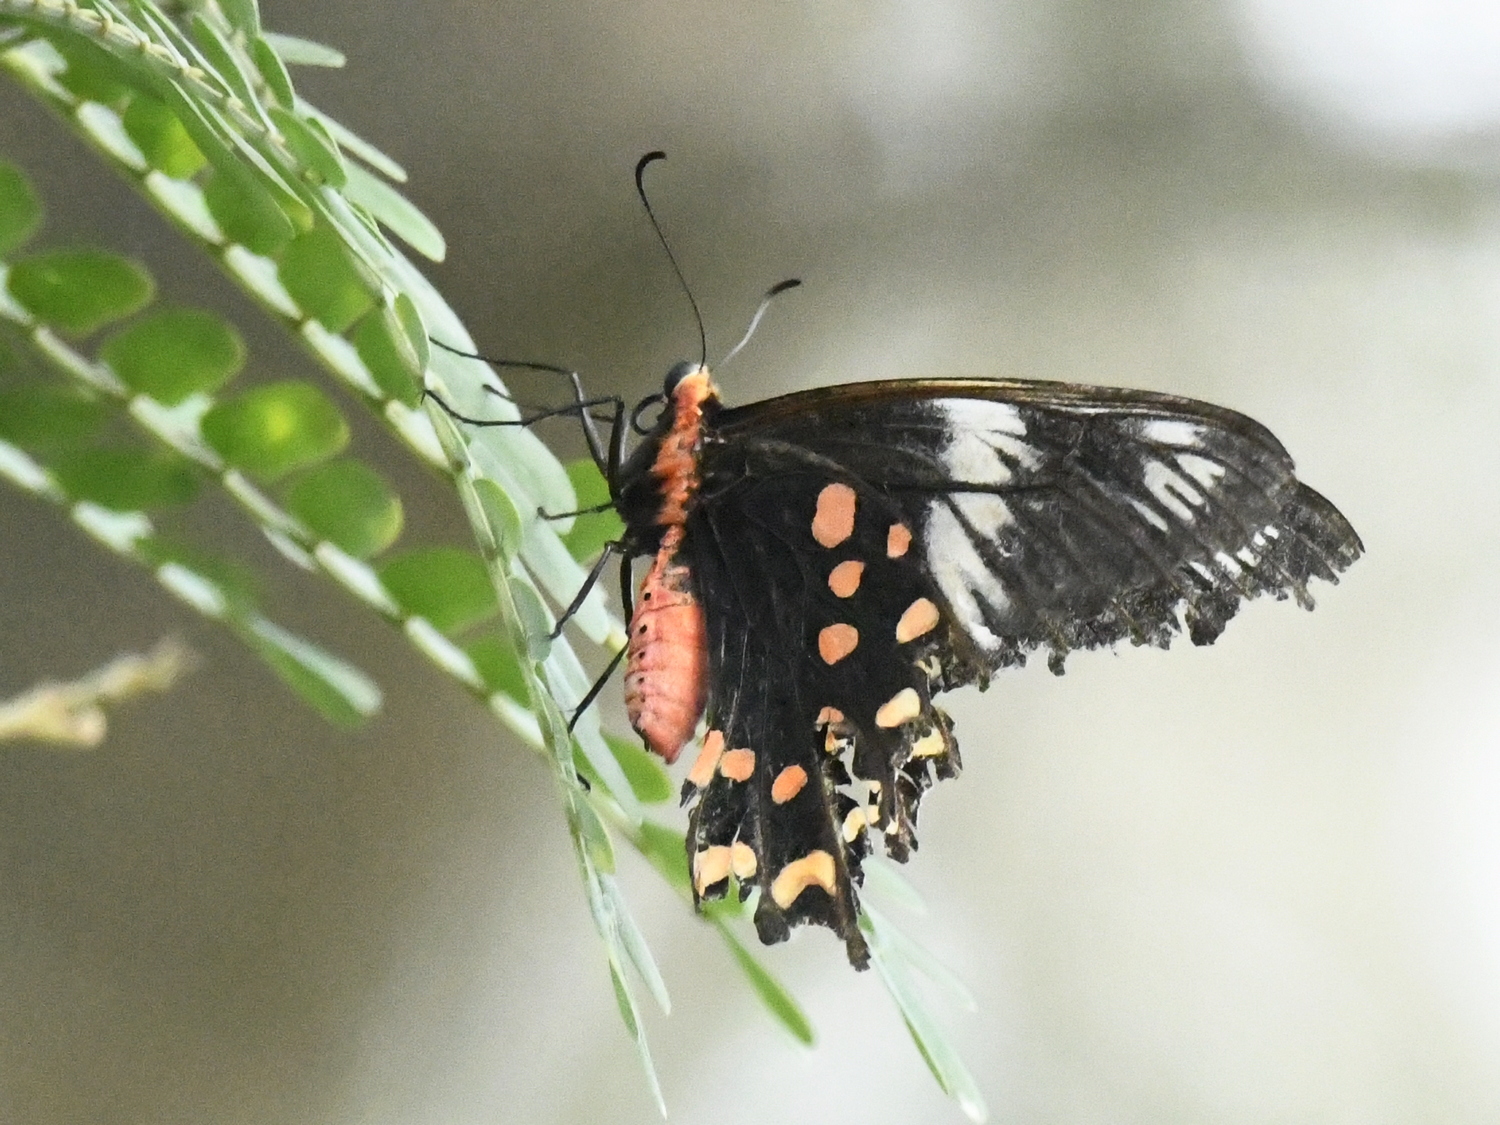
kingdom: Animalia
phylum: Arthropoda
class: Insecta
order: Lepidoptera
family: Papilionidae
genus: Pachliopta
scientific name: Pachliopta hector
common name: Crimson rose
